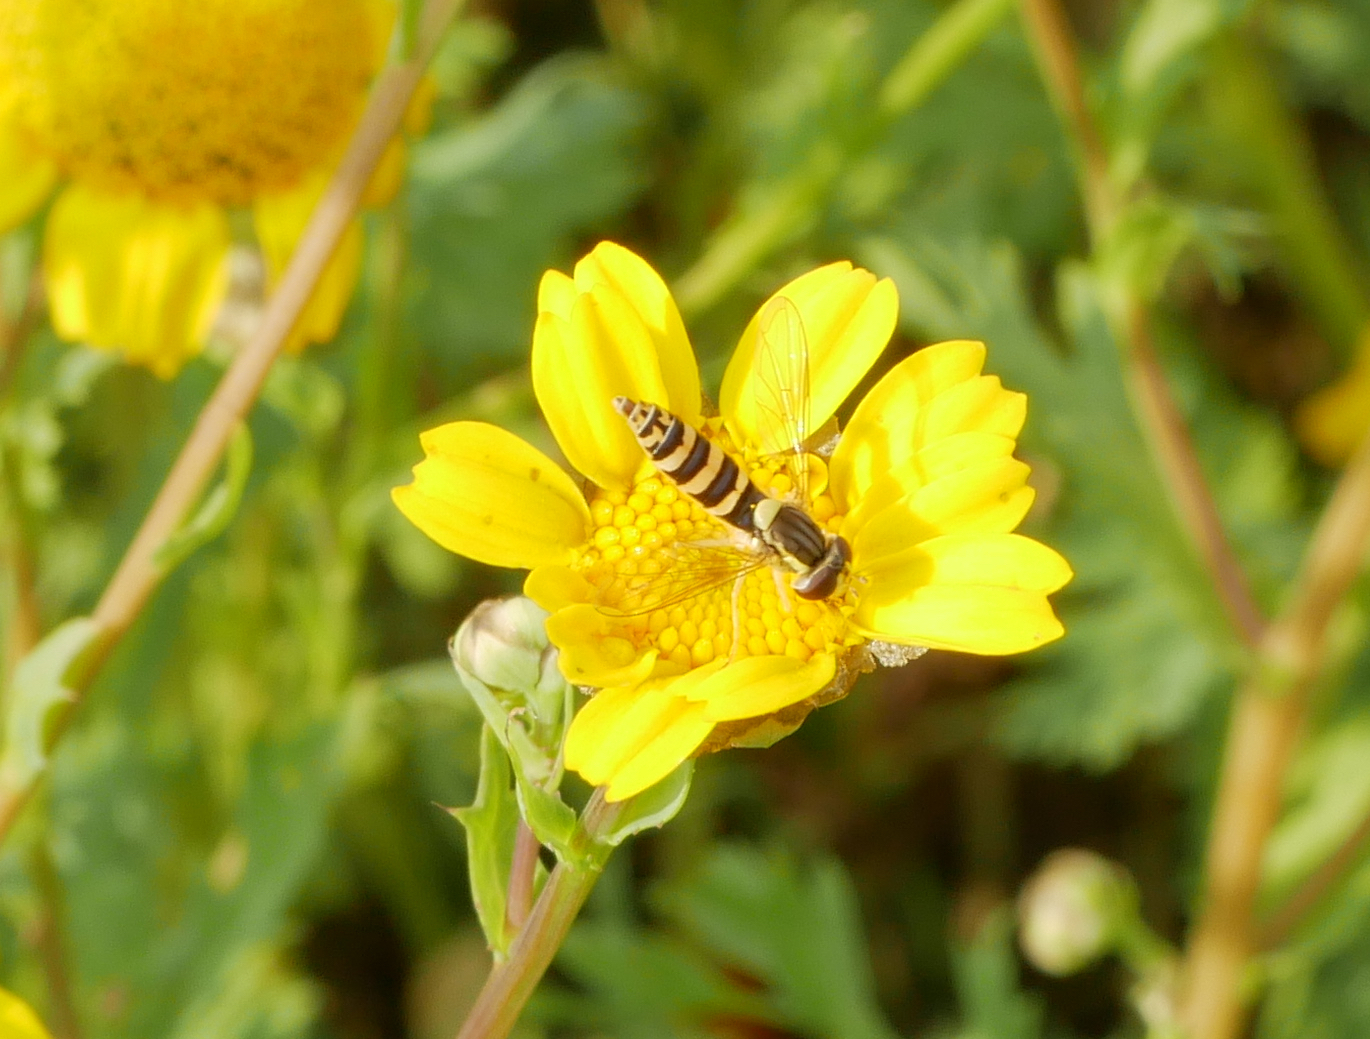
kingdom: Animalia
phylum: Arthropoda
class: Insecta
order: Diptera
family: Syrphidae
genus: Sphaerophoria
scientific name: Sphaerophoria
